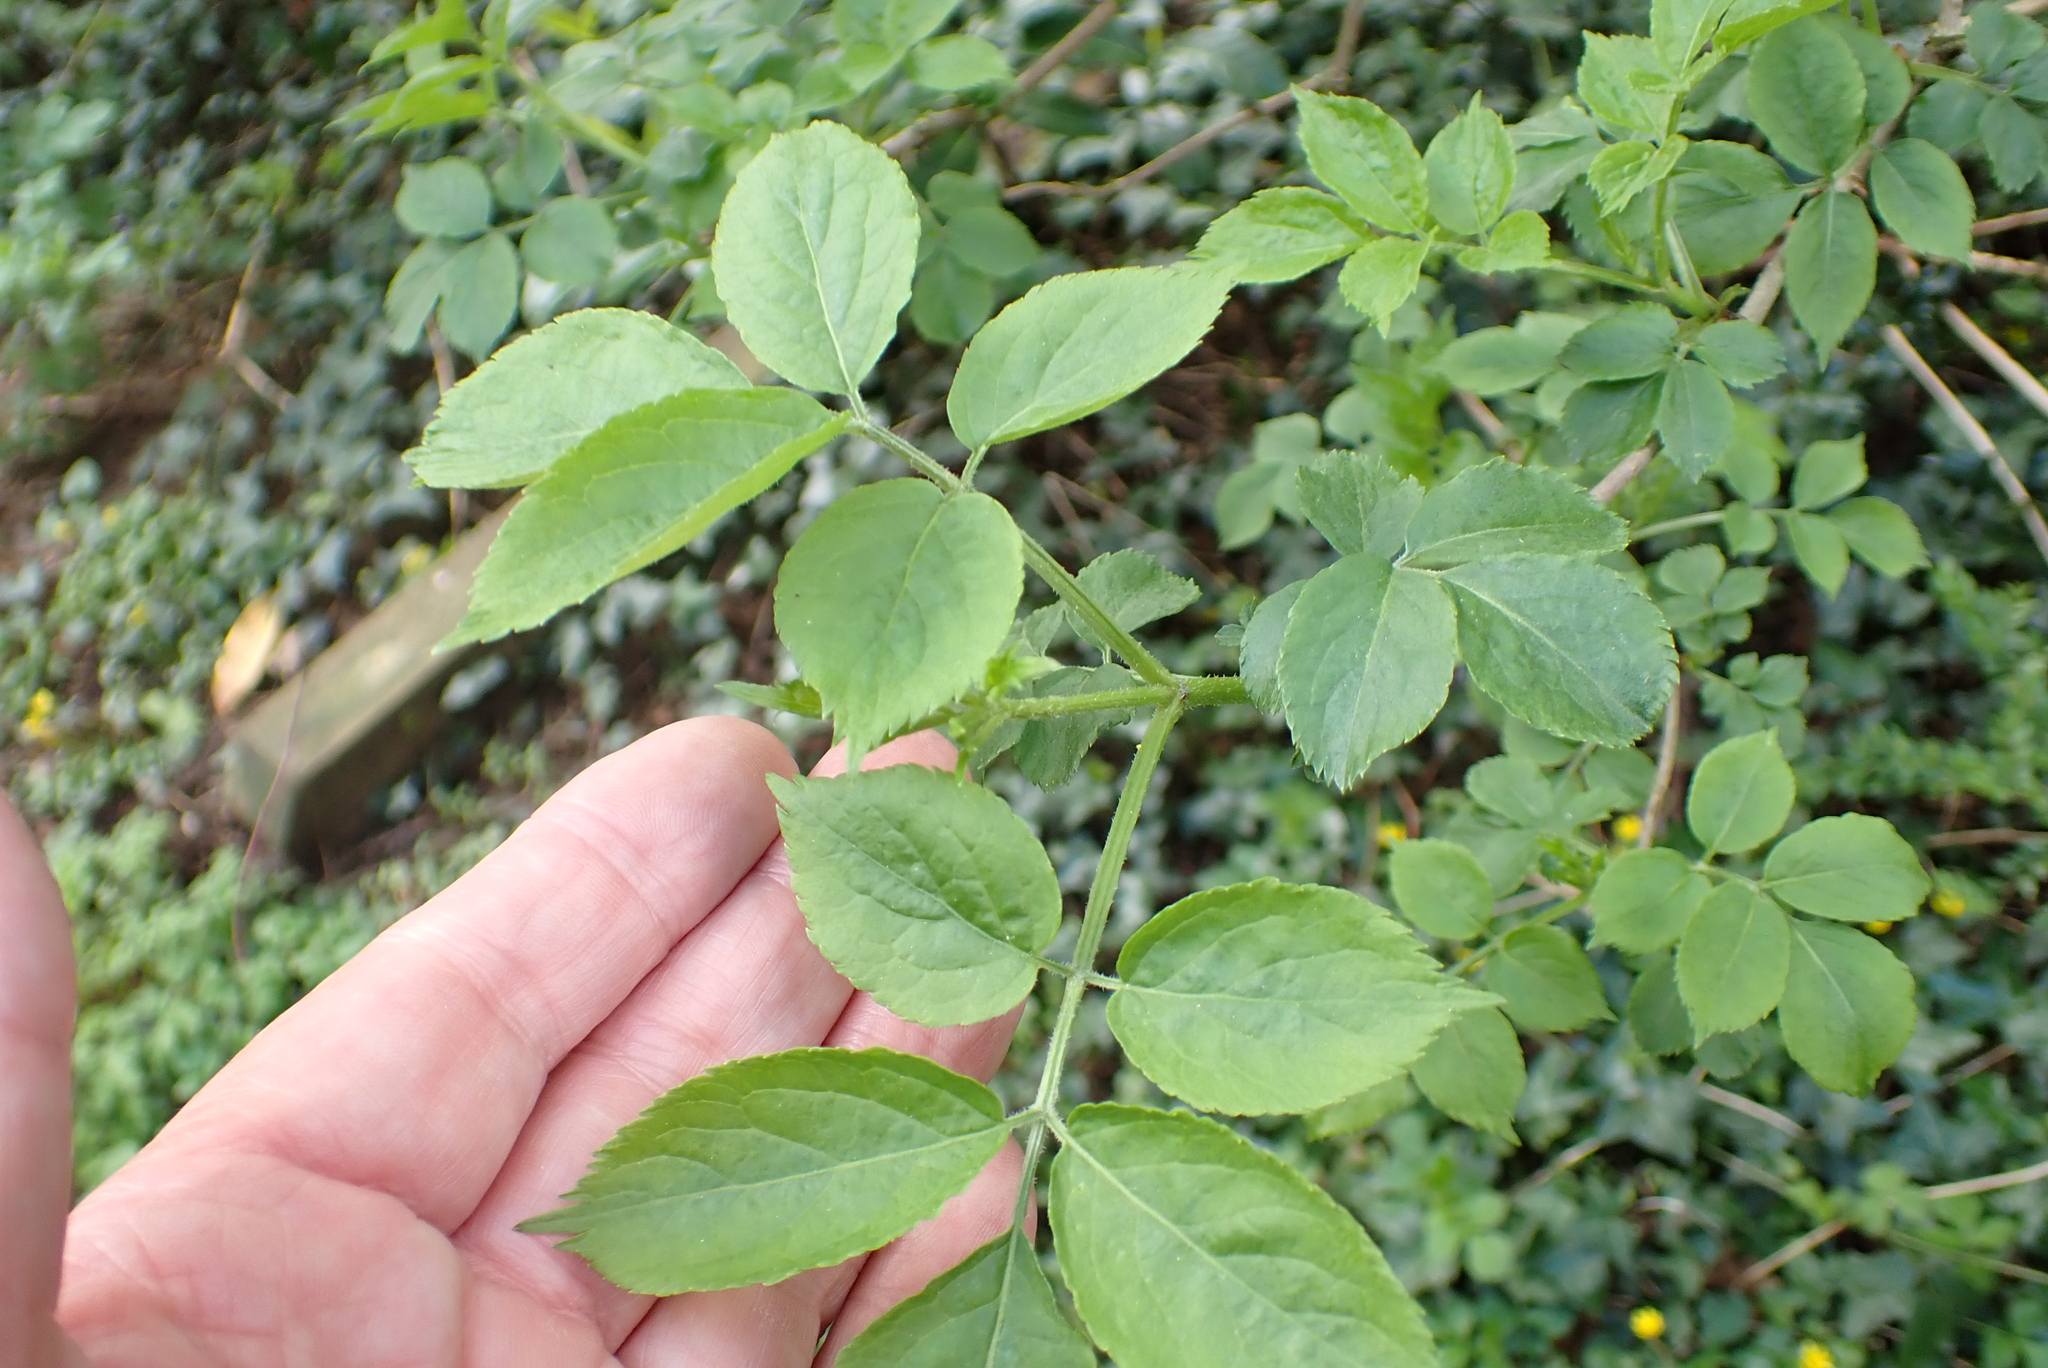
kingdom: Plantae
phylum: Tracheophyta
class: Magnoliopsida
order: Dipsacales
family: Viburnaceae
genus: Sambucus
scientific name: Sambucus nigra
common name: Elder
